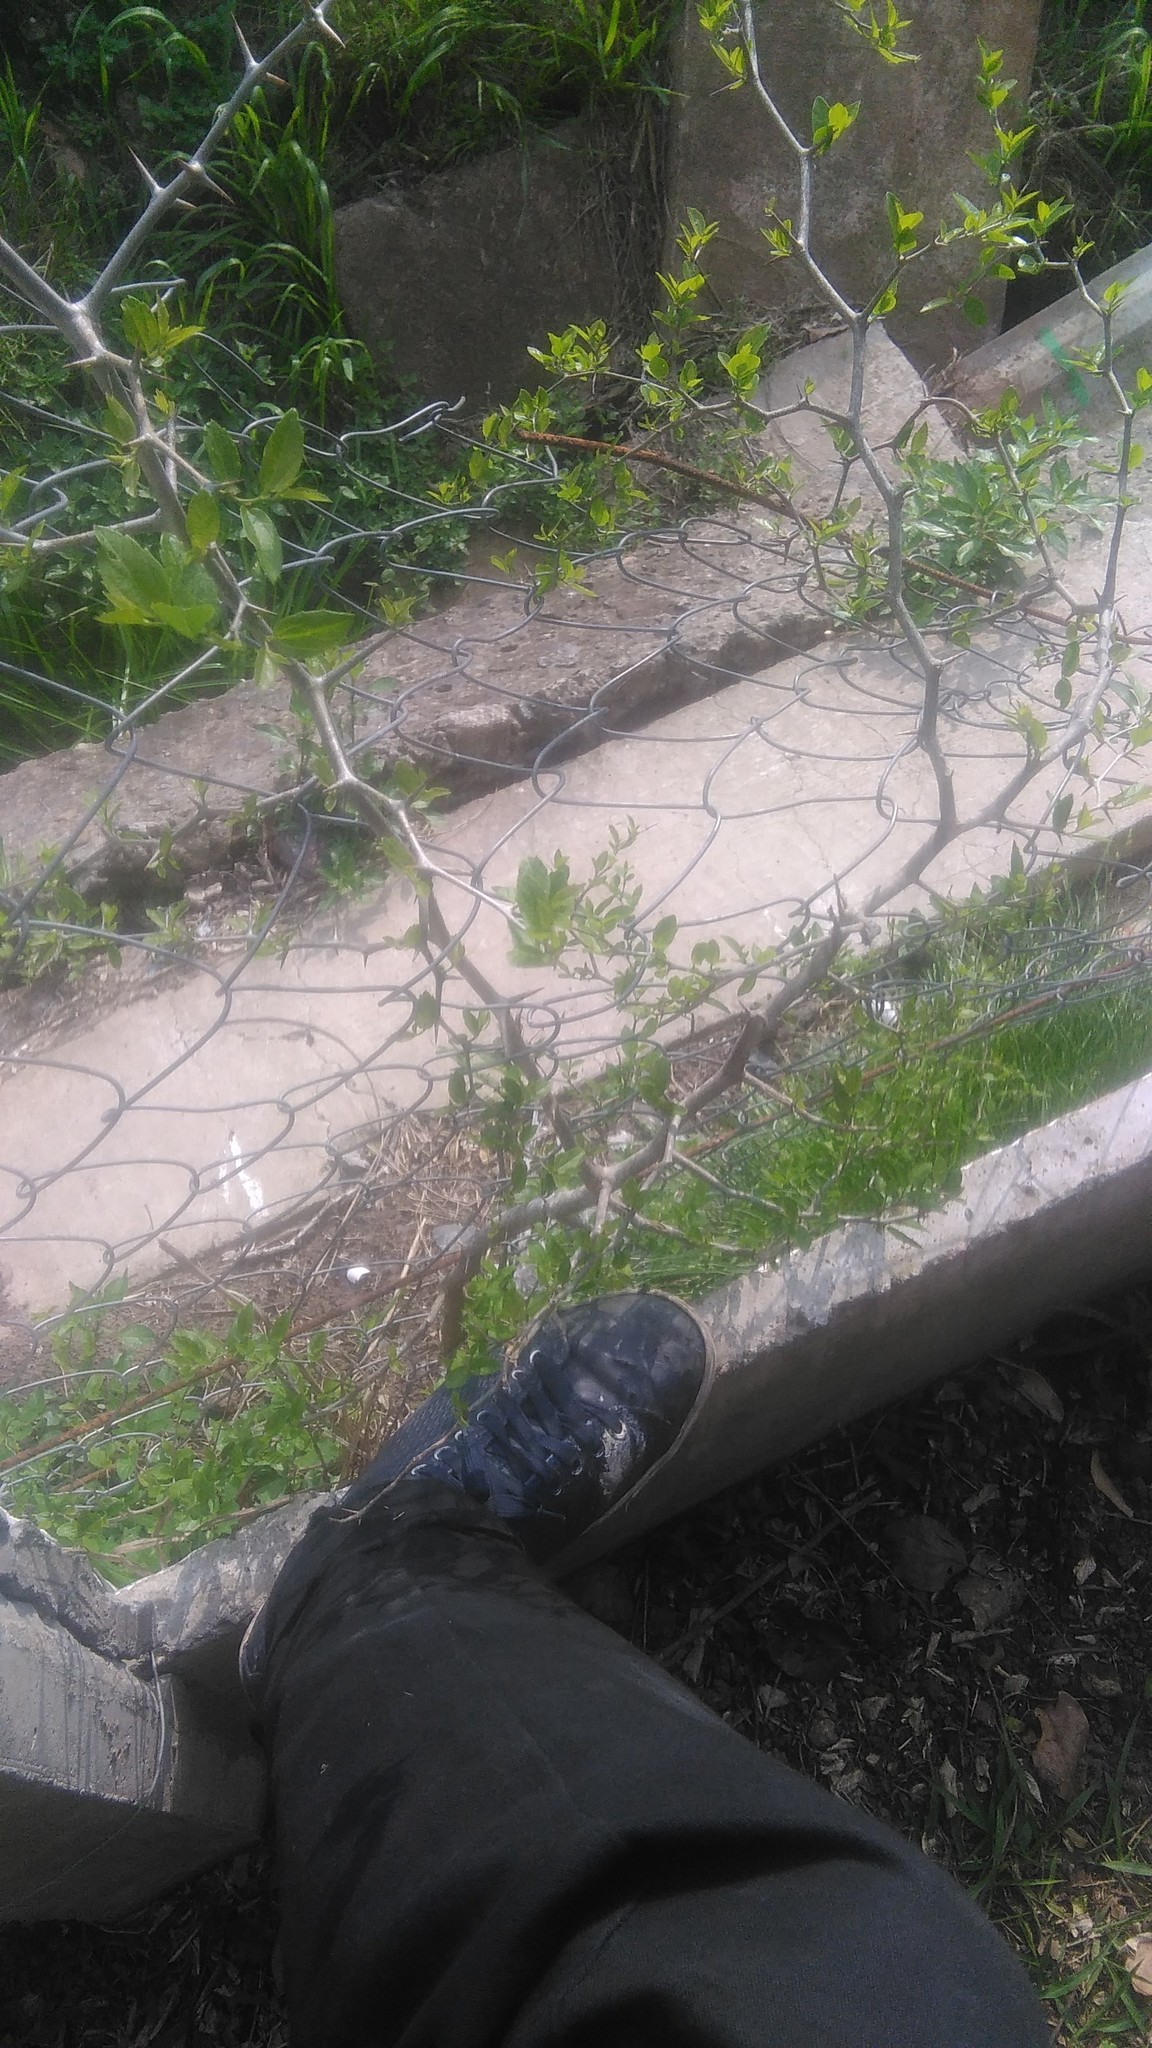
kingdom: Plantae
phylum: Tracheophyta
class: Magnoliopsida
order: Rosales
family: Cannabaceae
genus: Celtis
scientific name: Celtis tala
